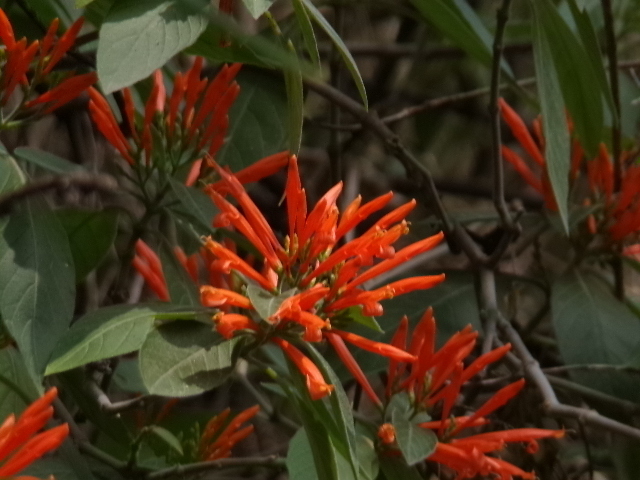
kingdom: Plantae
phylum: Tracheophyta
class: Magnoliopsida
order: Lamiales
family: Acanthaceae
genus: Justicia
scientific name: Justicia spicigera
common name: Mohintli
